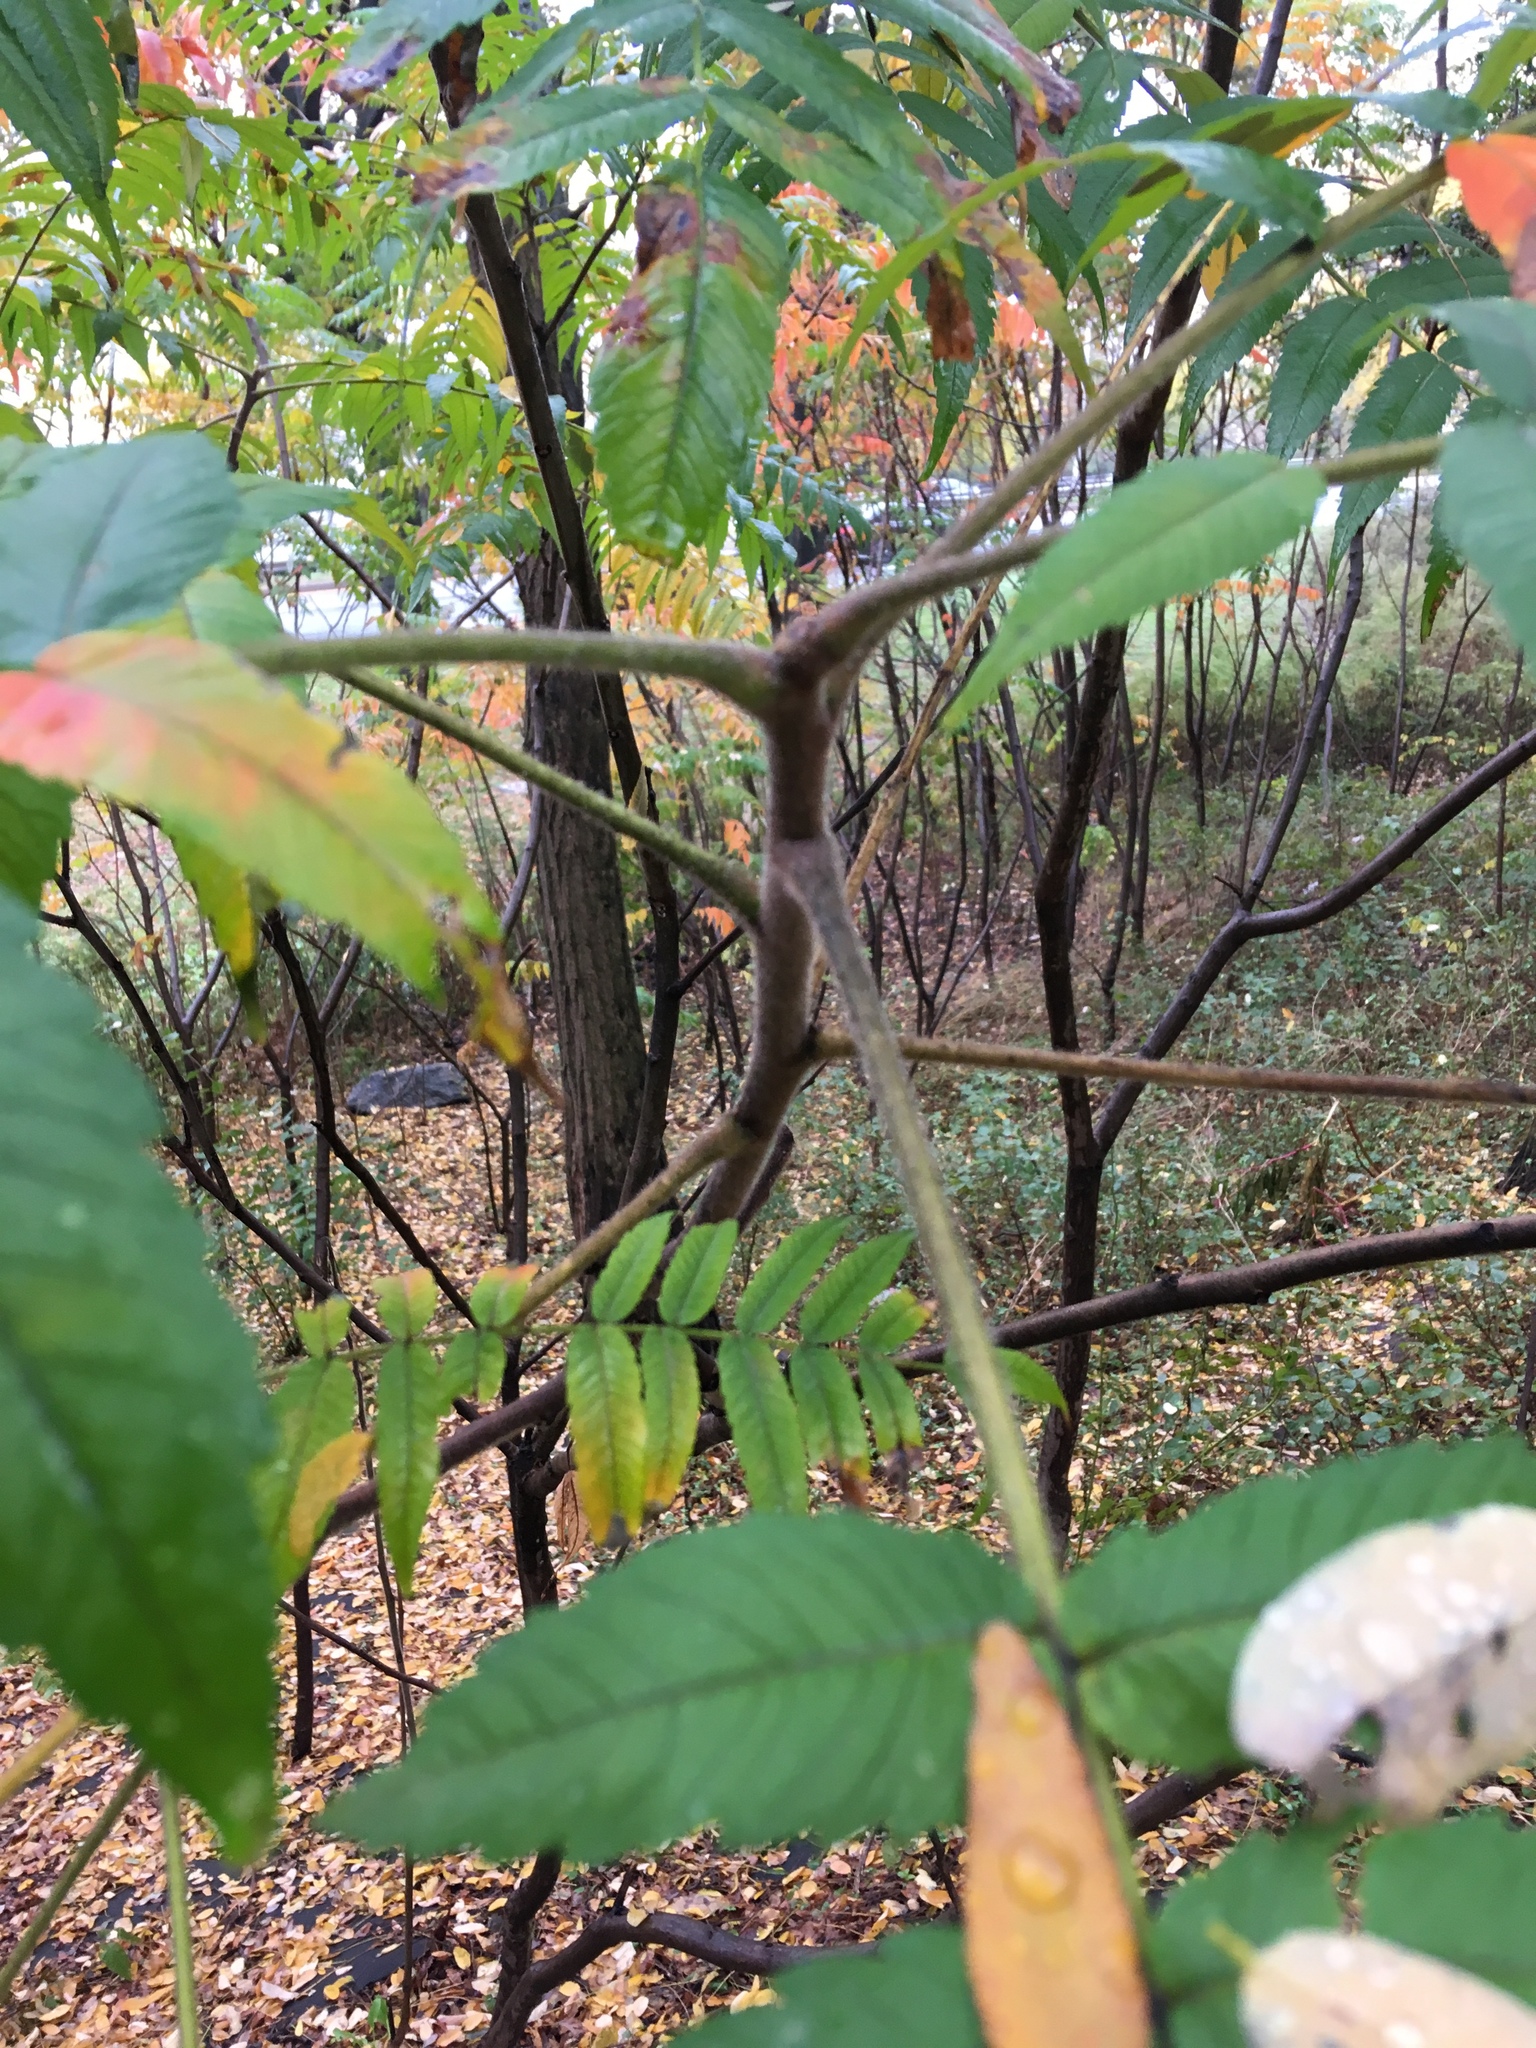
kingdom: Plantae
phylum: Tracheophyta
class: Magnoliopsida
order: Sapindales
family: Anacardiaceae
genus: Rhus
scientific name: Rhus typhina
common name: Staghorn sumac
